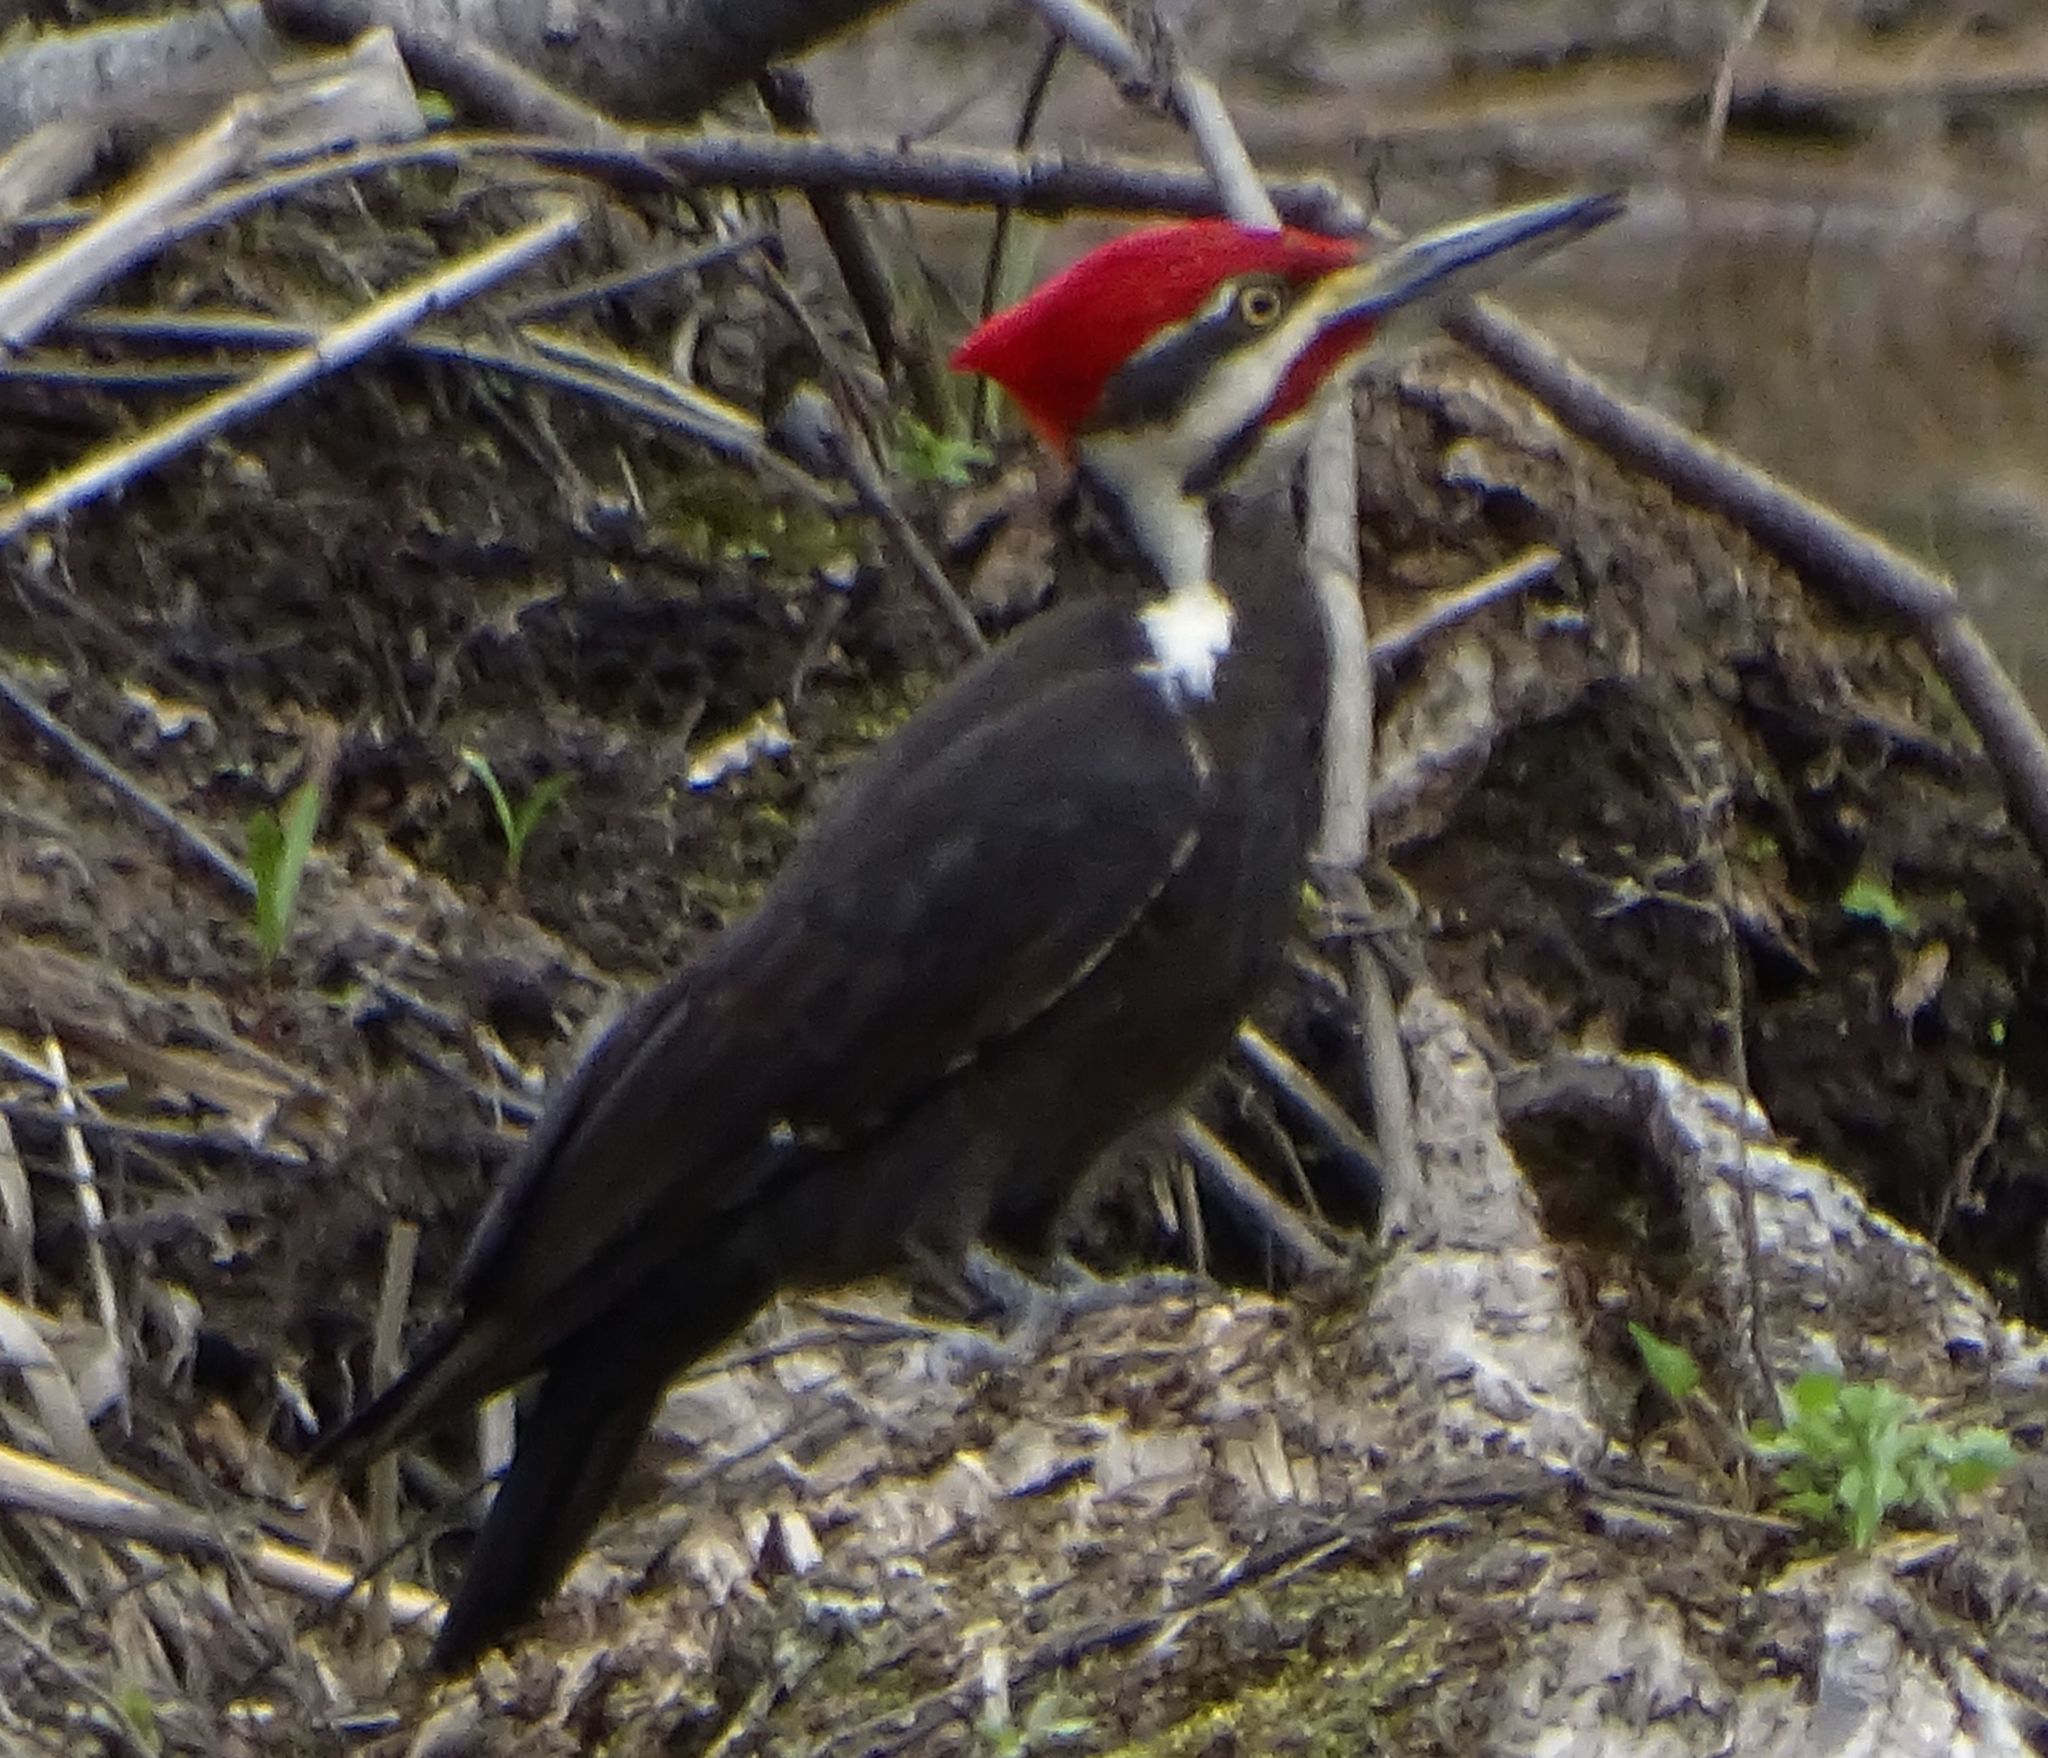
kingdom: Animalia
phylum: Chordata
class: Aves
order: Piciformes
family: Picidae
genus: Dryocopus
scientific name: Dryocopus pileatus
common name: Pileated woodpecker
